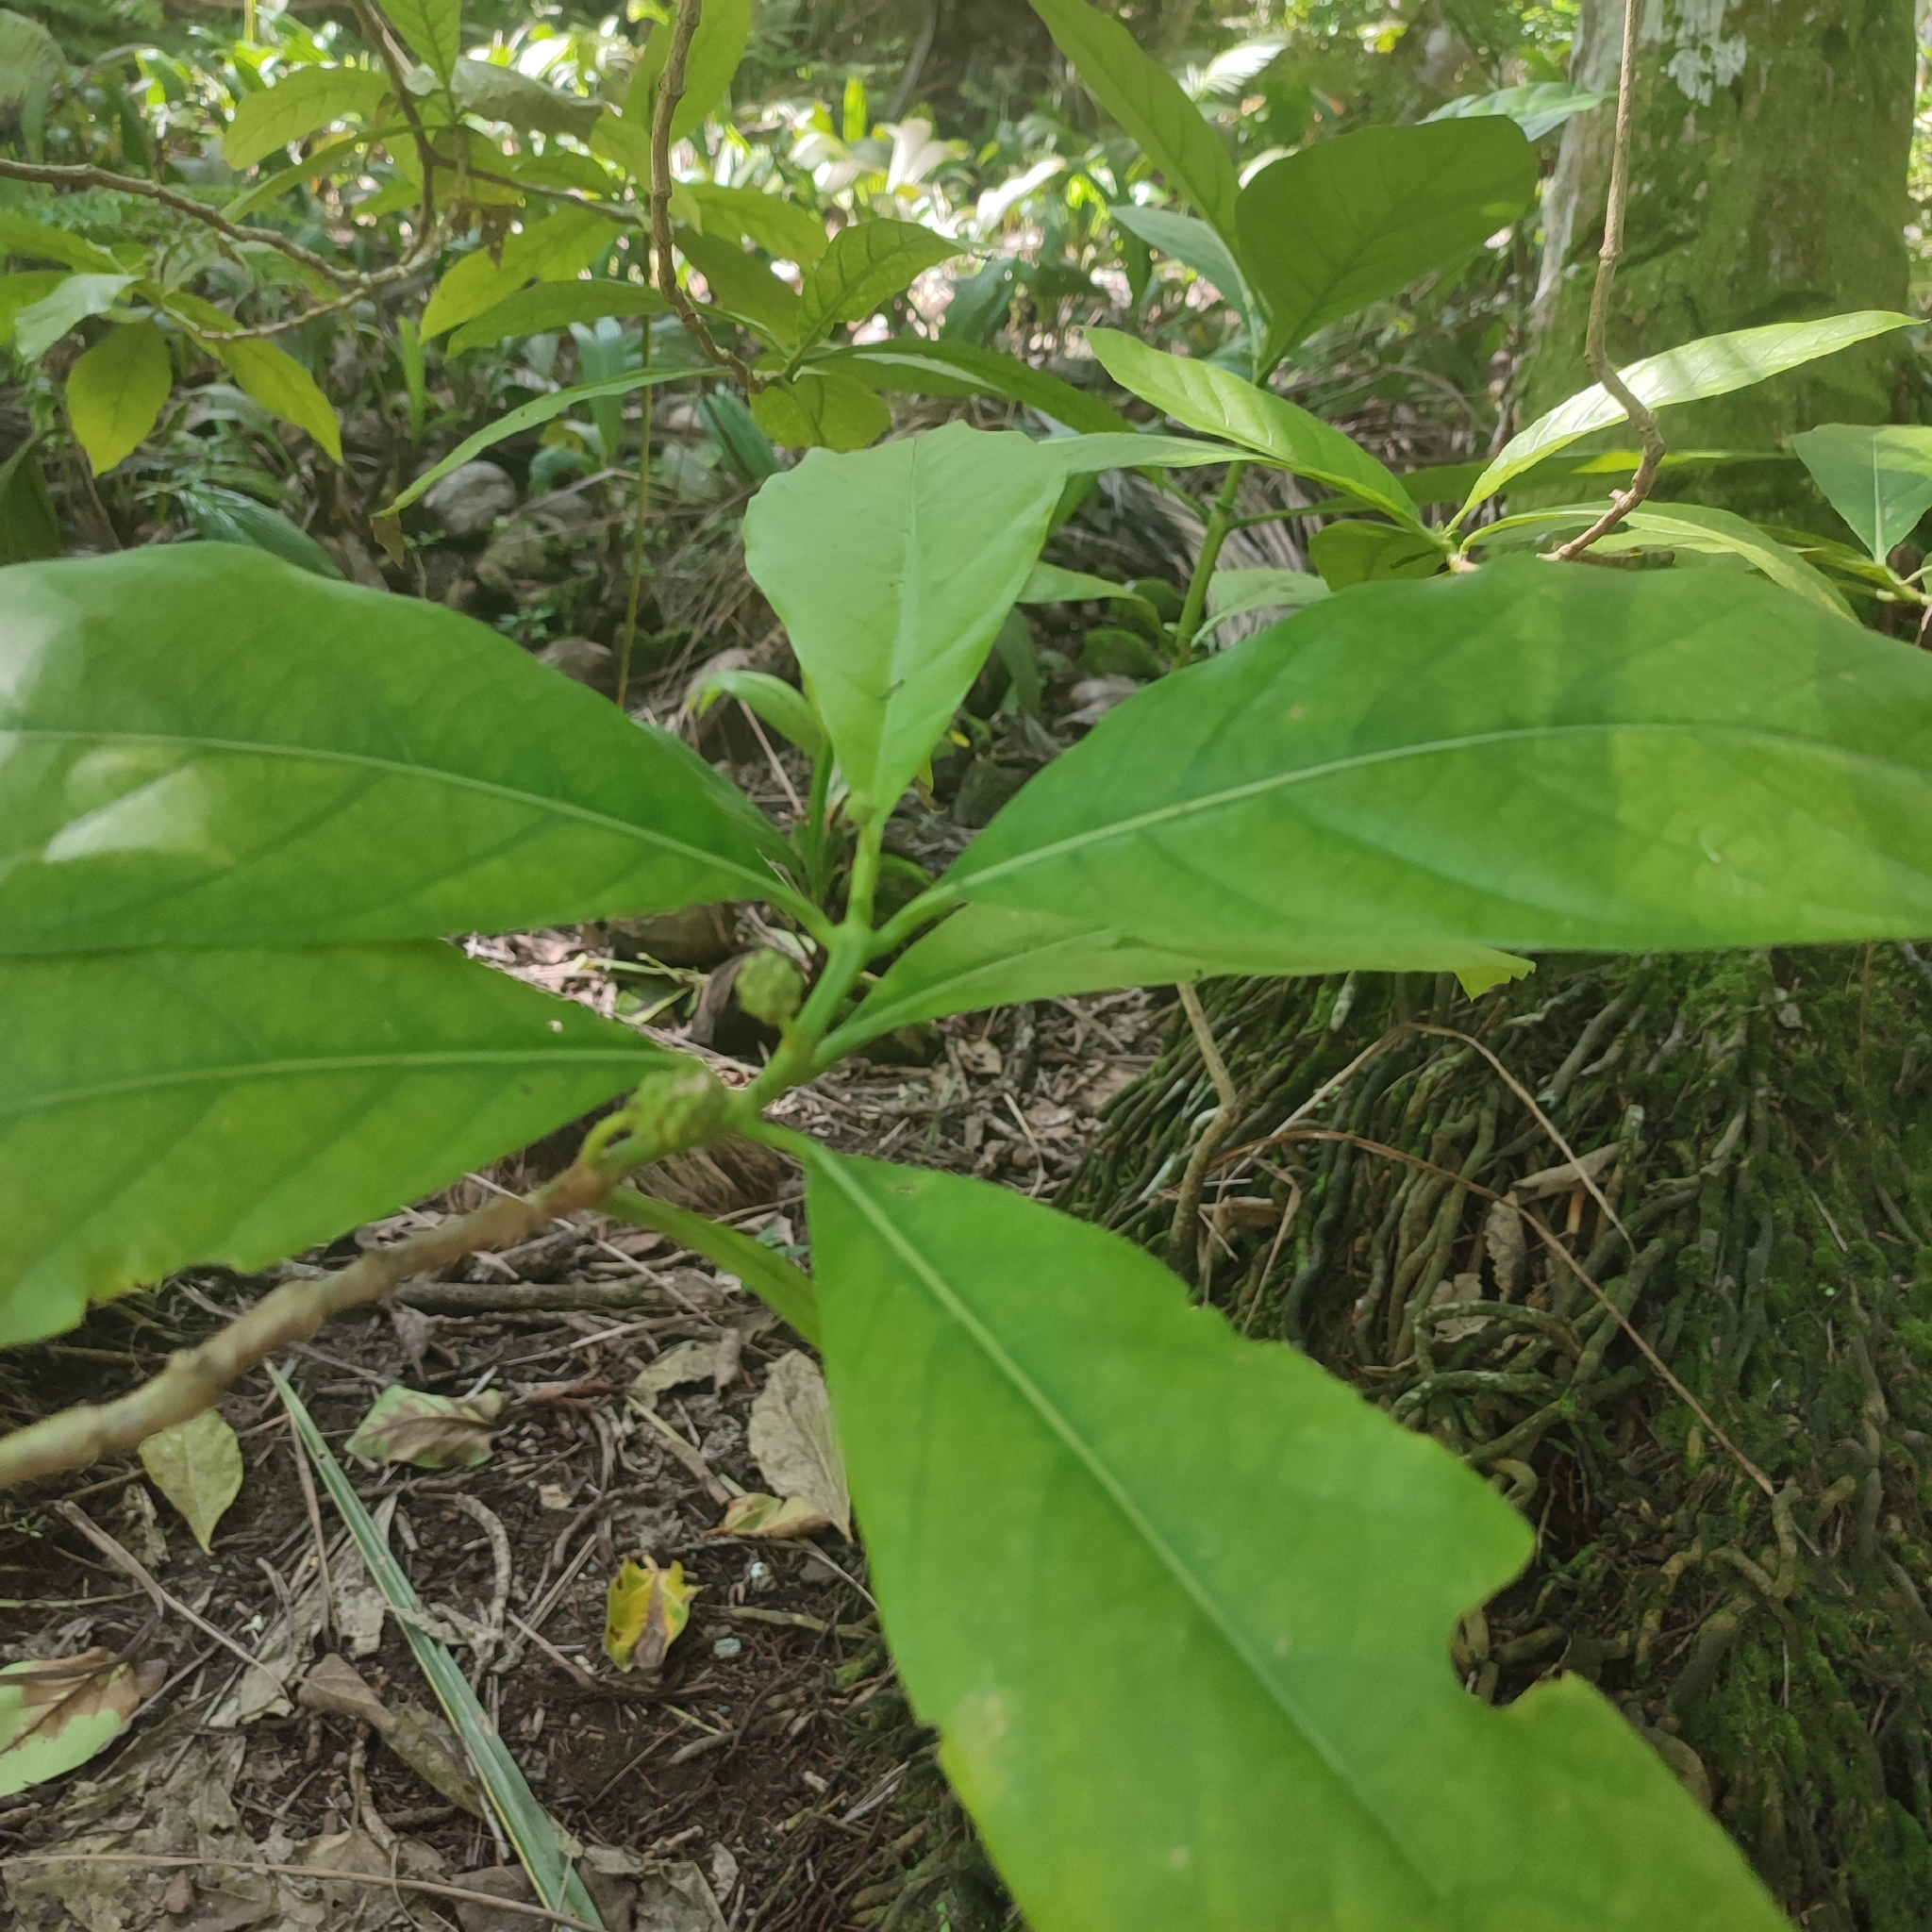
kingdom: Plantae
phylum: Tracheophyta
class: Magnoliopsida
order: Gentianales
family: Rubiaceae
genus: Morinda
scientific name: Morinda citrifolia
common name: Indian-mulberry
